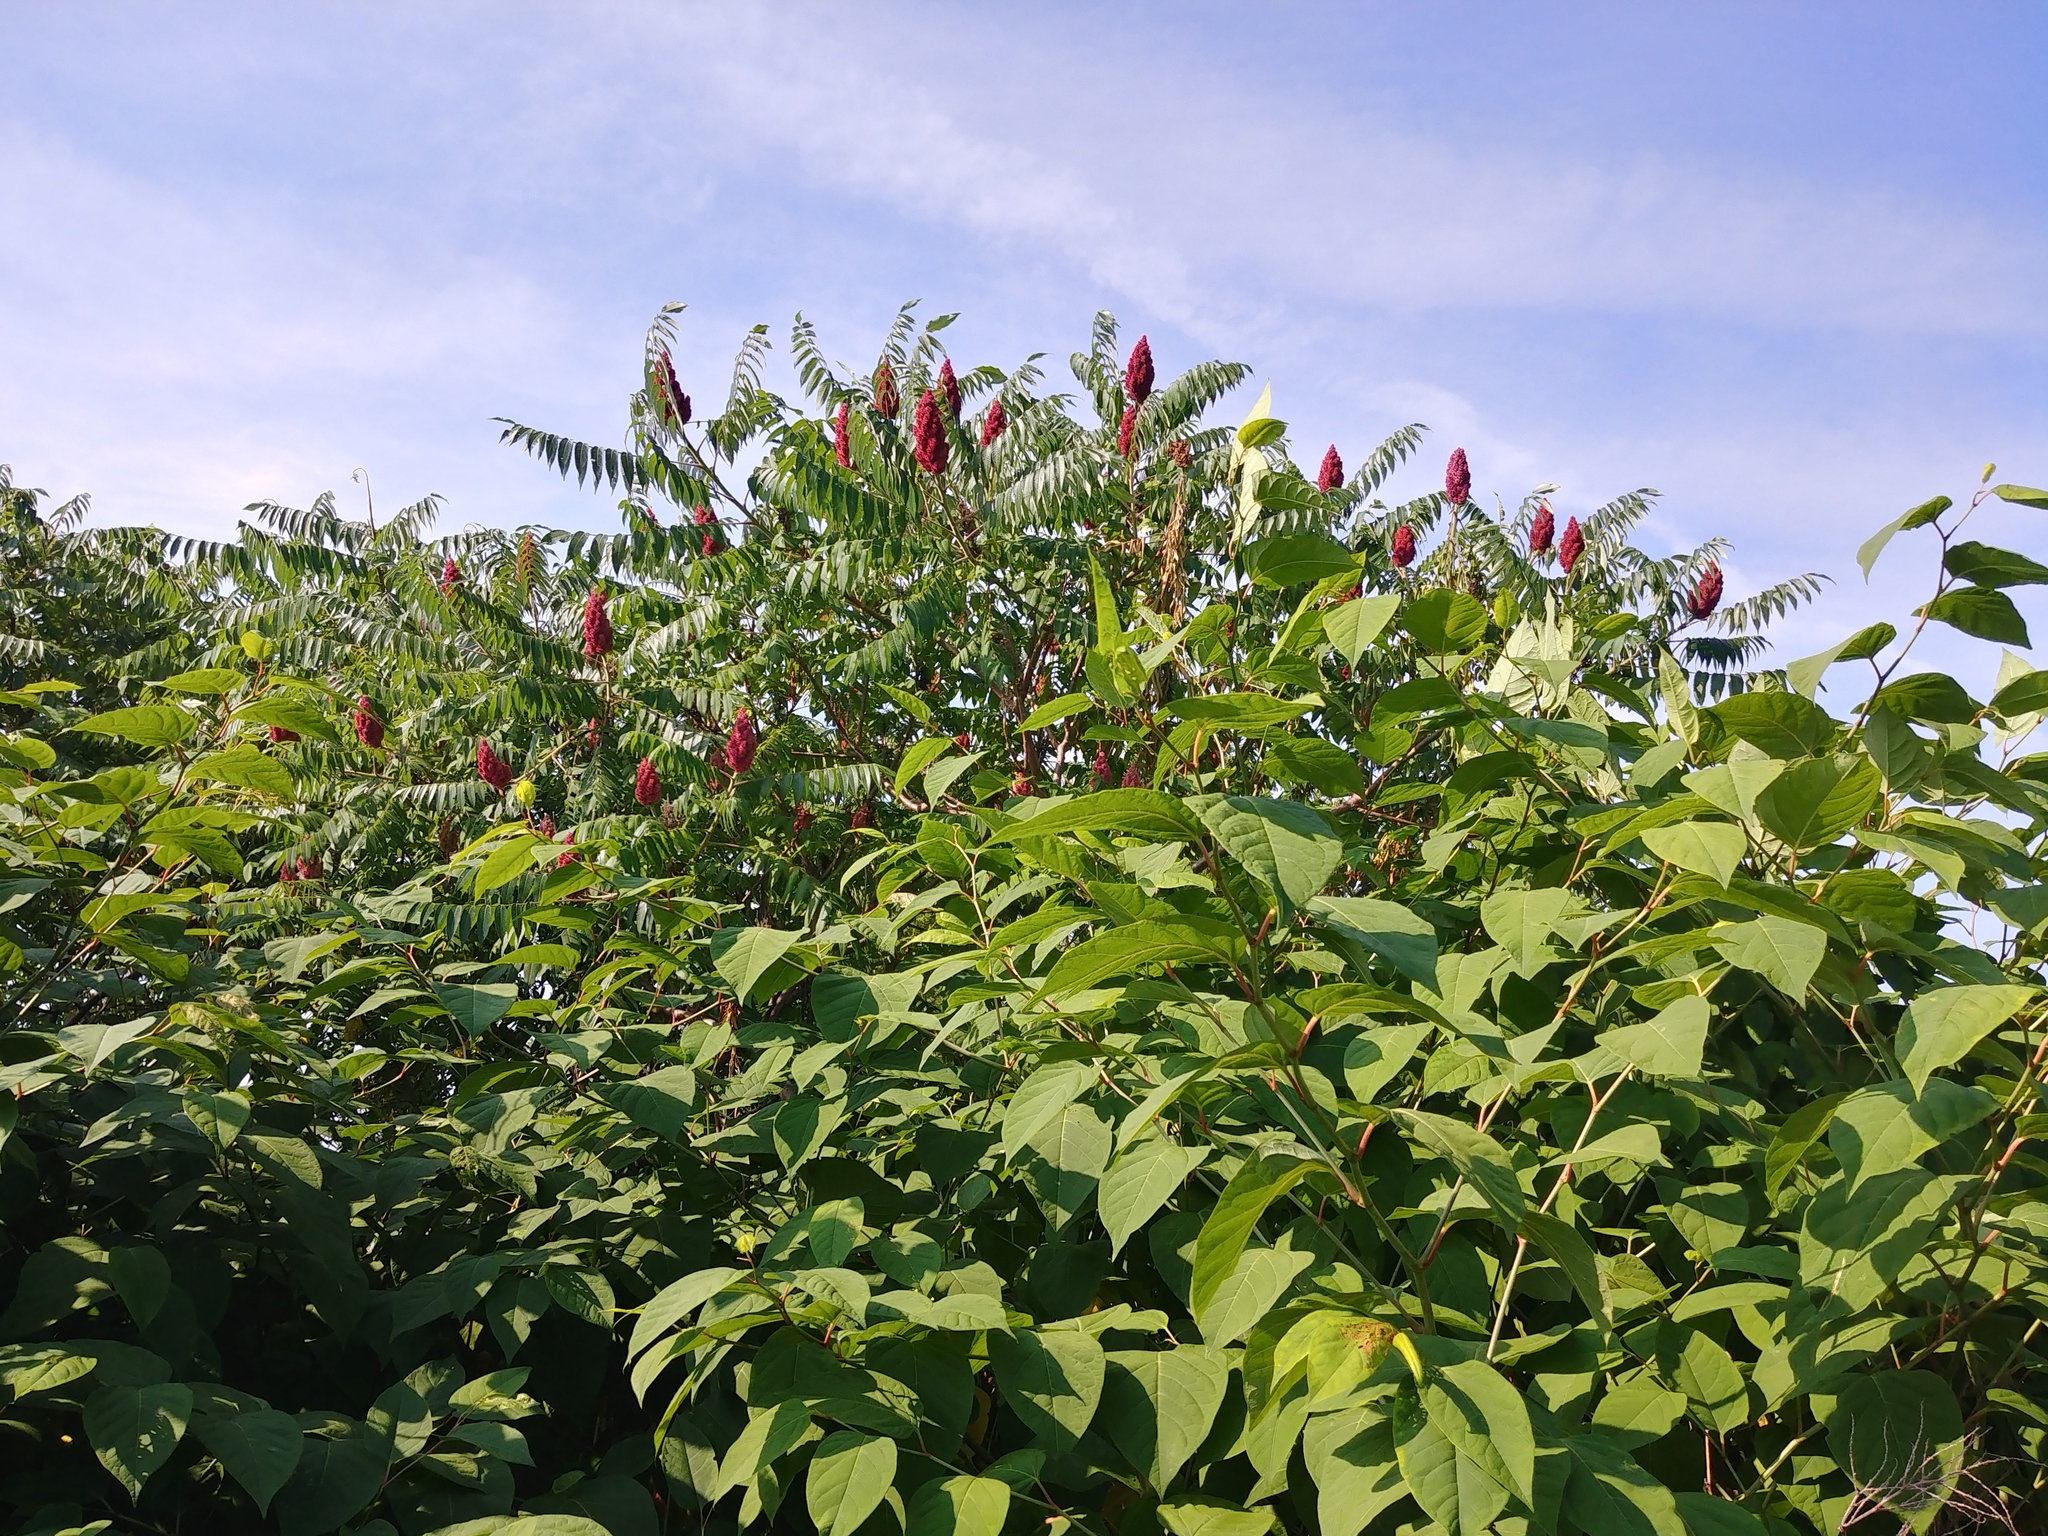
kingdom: Plantae
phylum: Tracheophyta
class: Magnoliopsida
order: Sapindales
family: Anacardiaceae
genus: Rhus
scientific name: Rhus typhina
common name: Staghorn sumac
